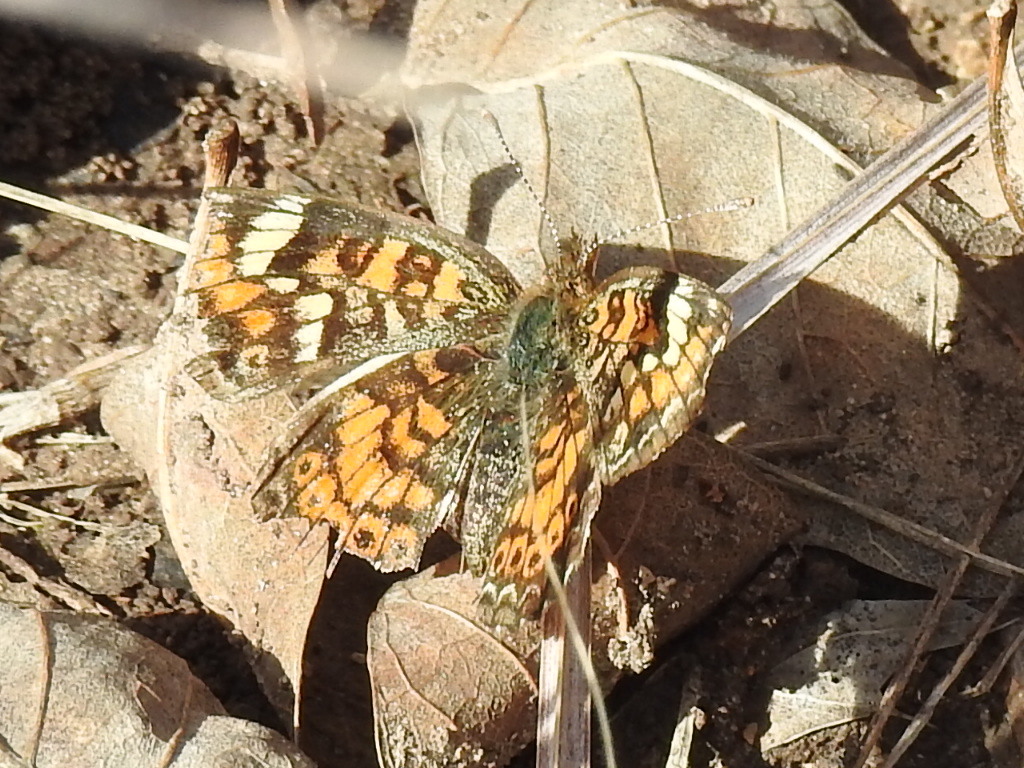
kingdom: Animalia
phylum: Arthropoda
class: Insecta
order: Lepidoptera
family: Nymphalidae
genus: Phyciodes
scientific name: Phyciodes phaon
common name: Phaon crescent
